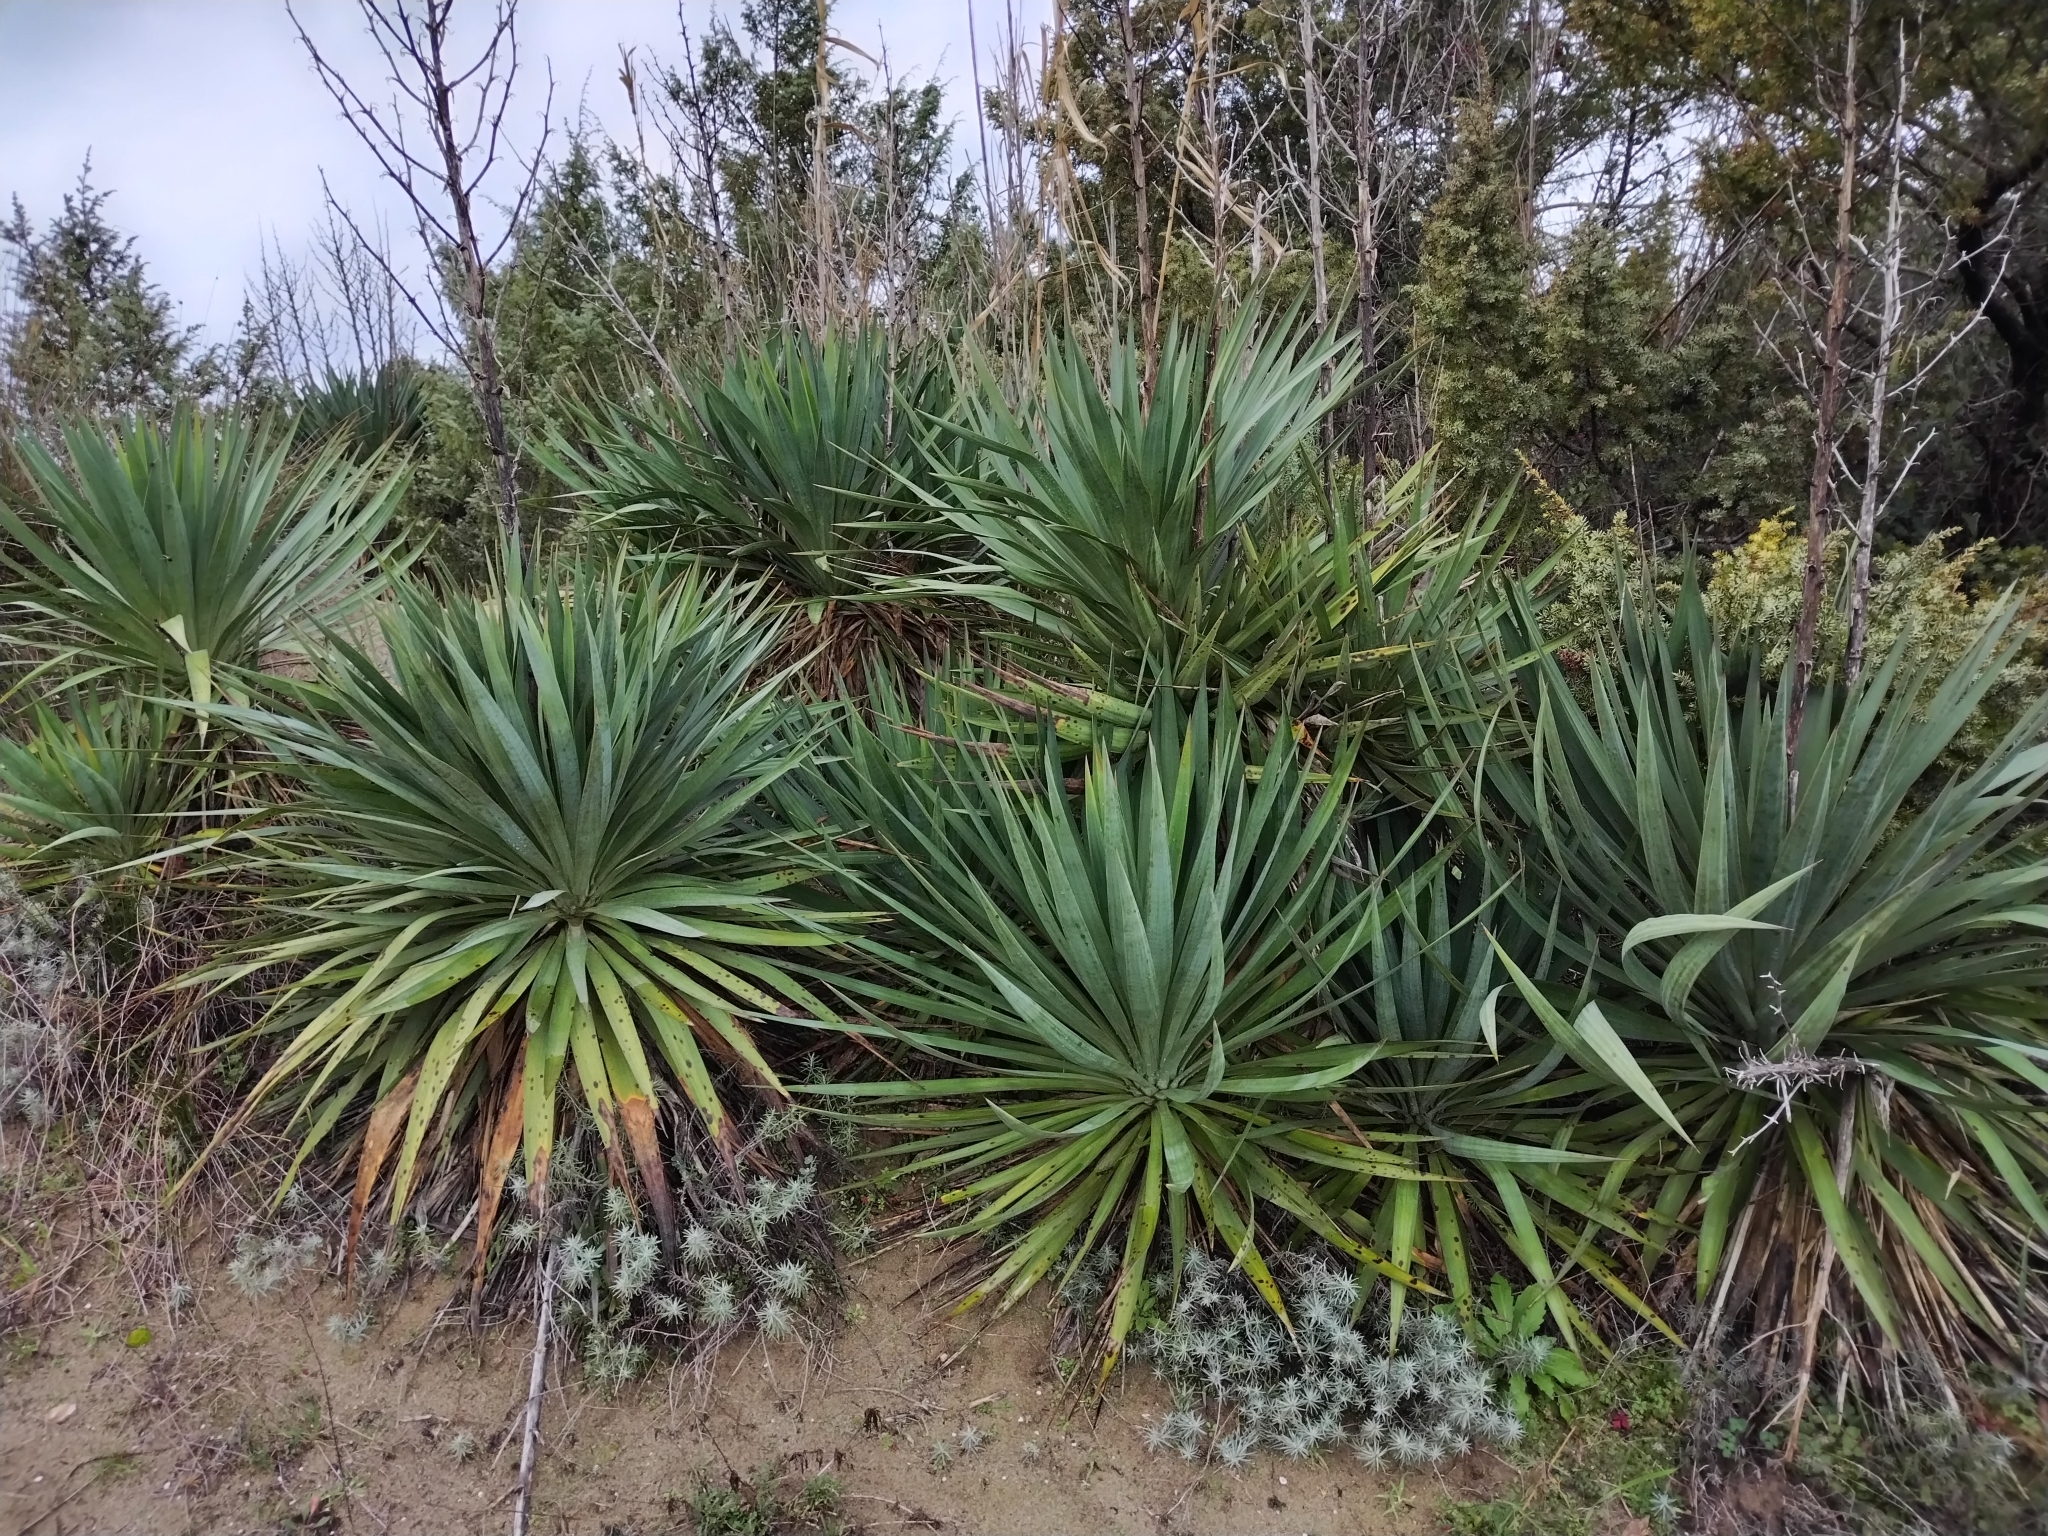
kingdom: Plantae
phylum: Tracheophyta
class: Liliopsida
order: Asparagales
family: Asparagaceae
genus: Yucca
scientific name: Yucca gloriosa
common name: Spanish-dagger
